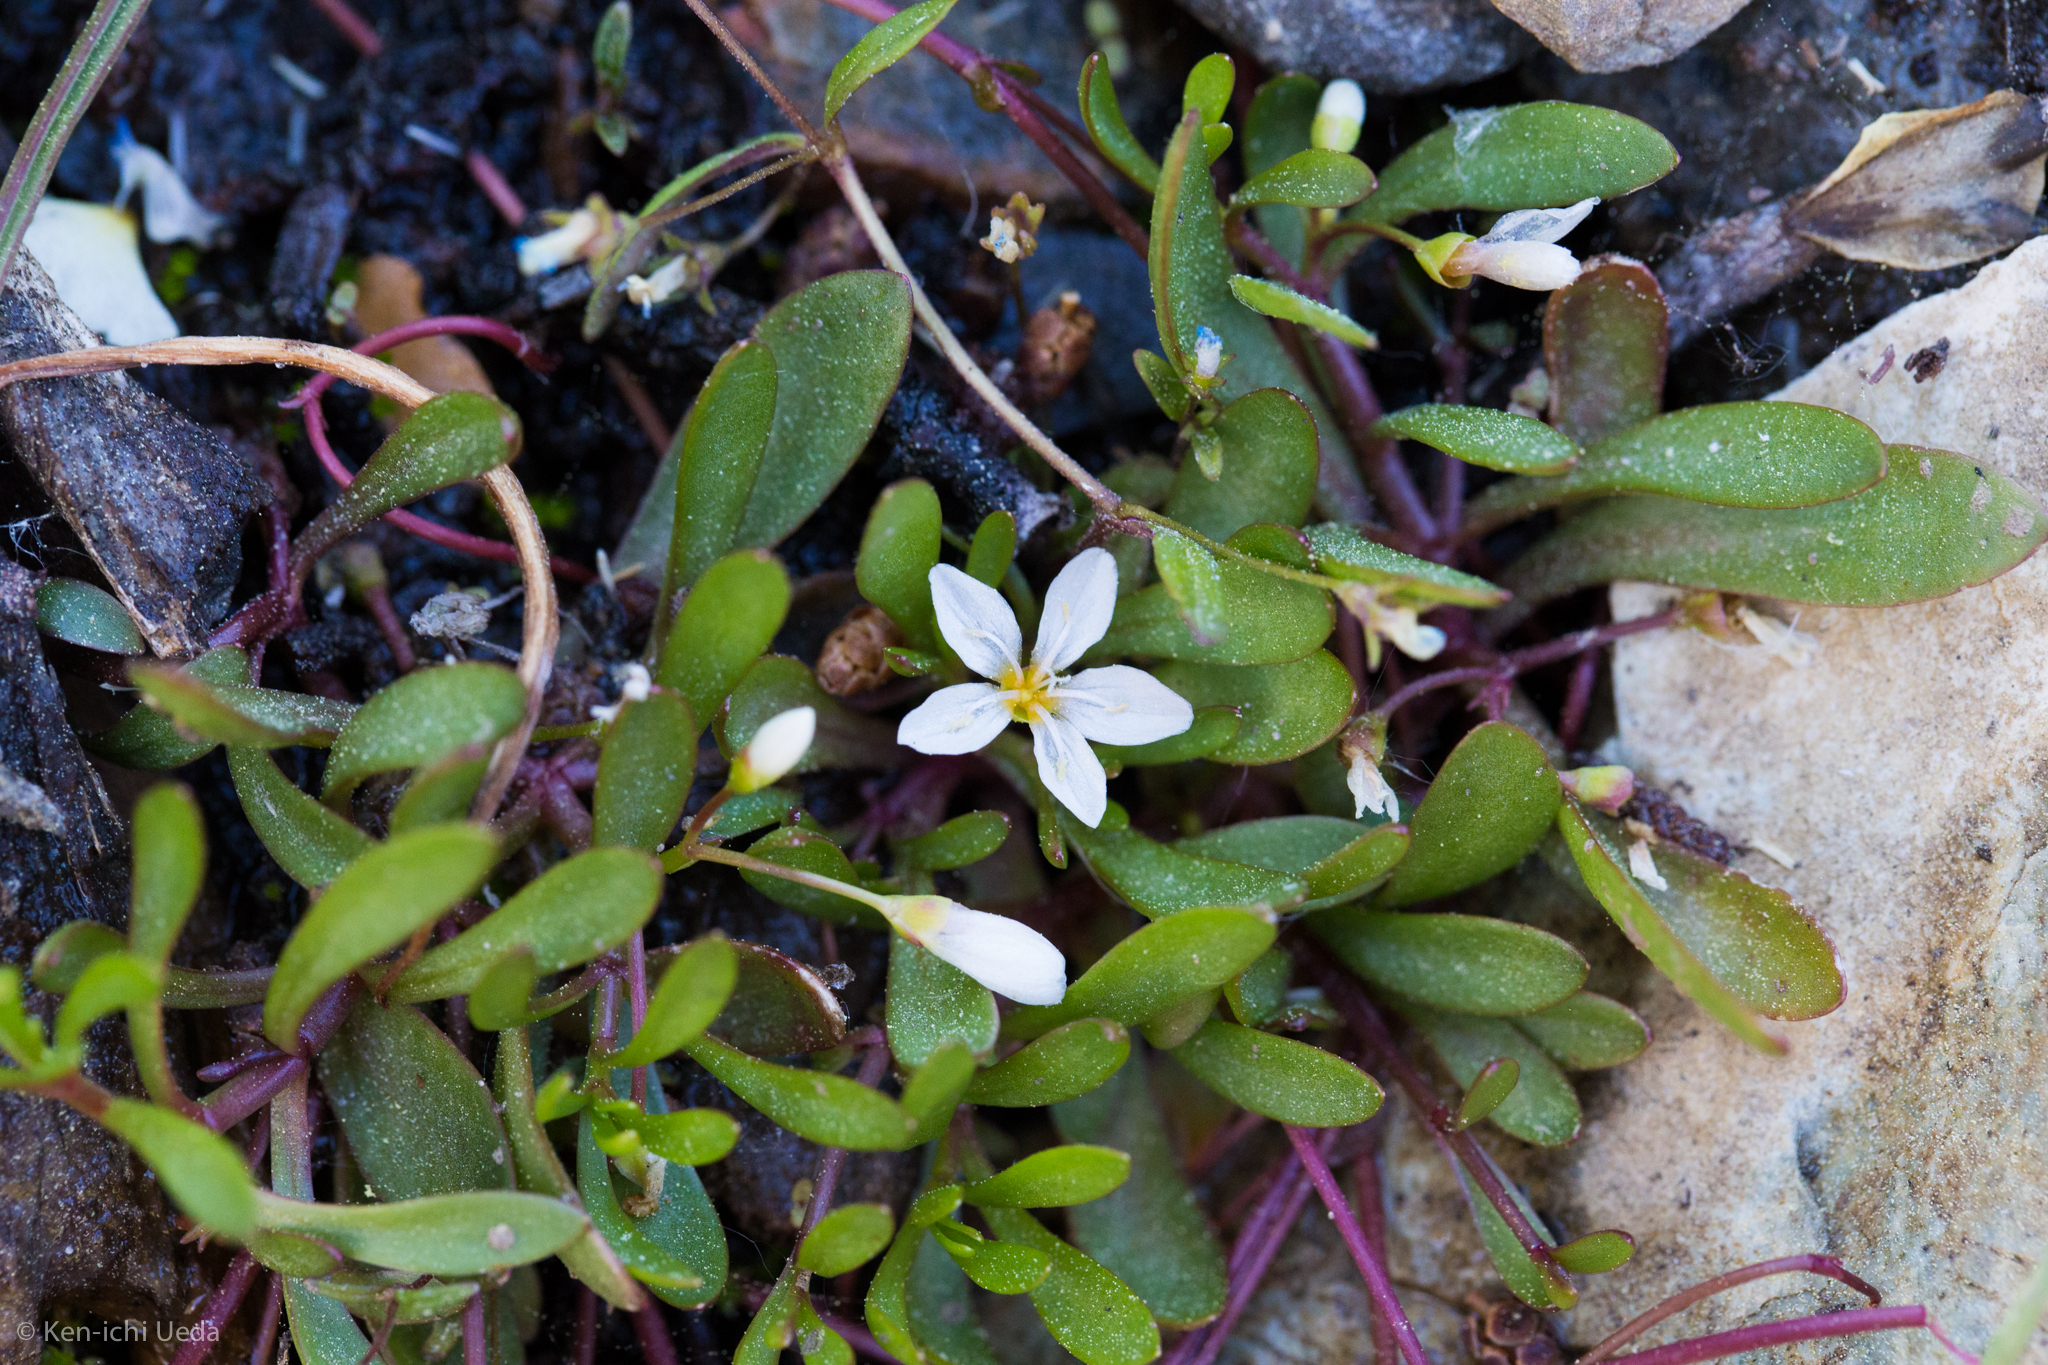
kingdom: Plantae
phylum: Tracheophyta
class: Magnoliopsida
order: Caryophyllales
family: Montiaceae
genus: Montia
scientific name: Montia chamissoi
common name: Chamisso's candyflower
